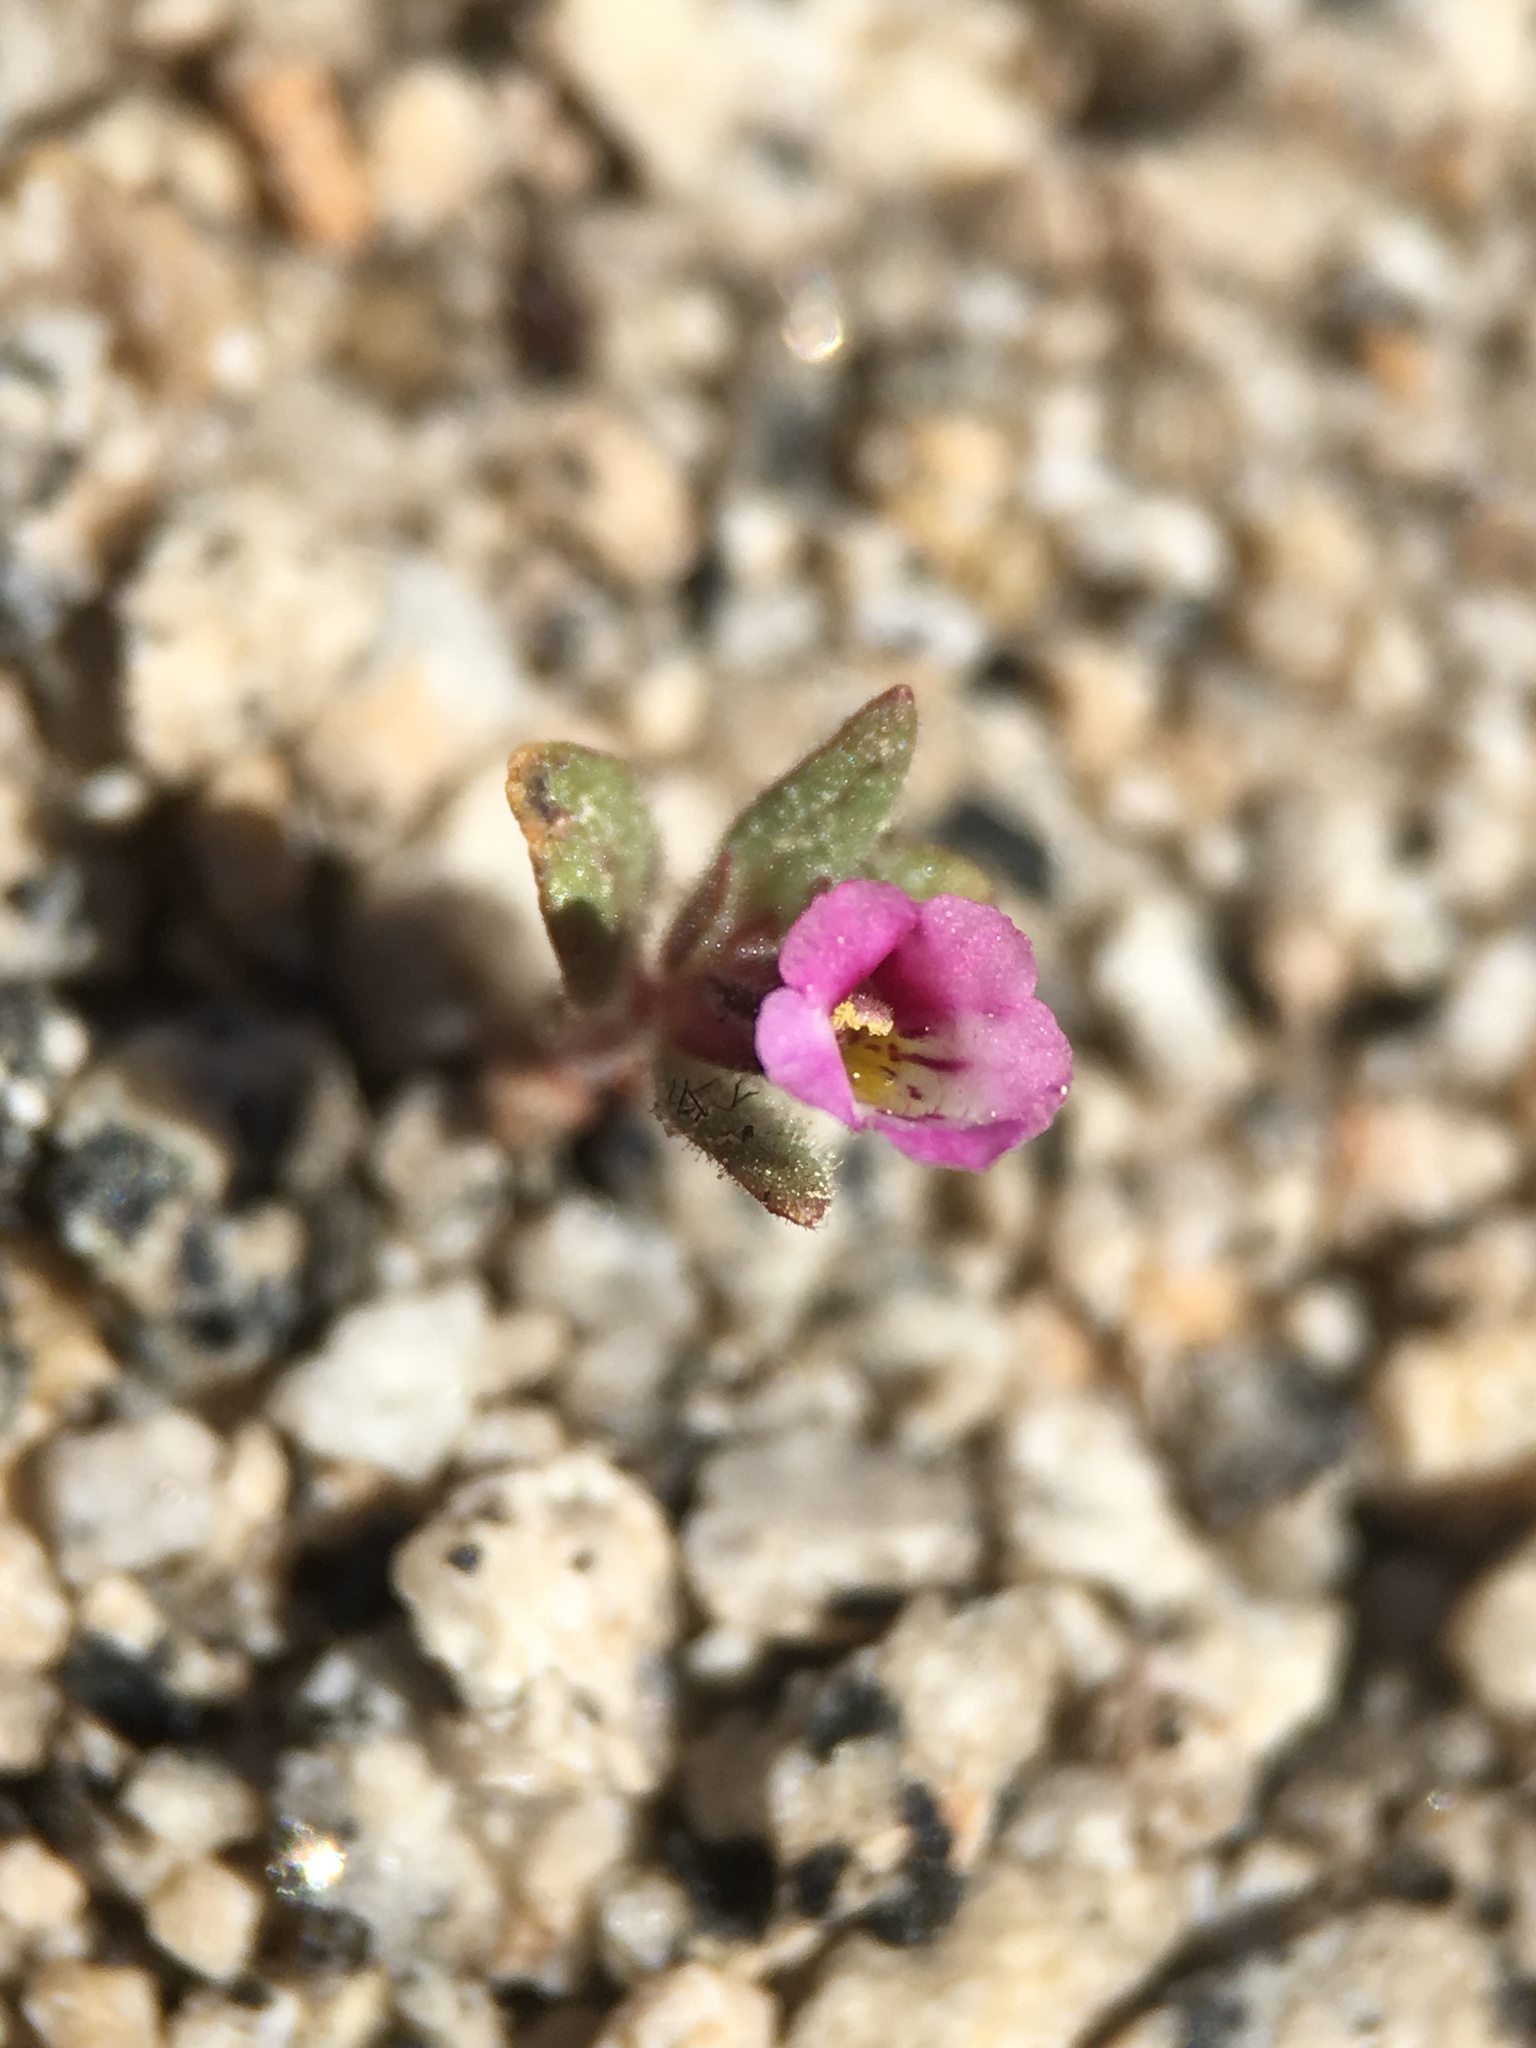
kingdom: Plantae
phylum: Tracheophyta
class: Magnoliopsida
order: Lamiales
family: Phrymaceae
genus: Diplacus
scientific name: Diplacus leptaleus
